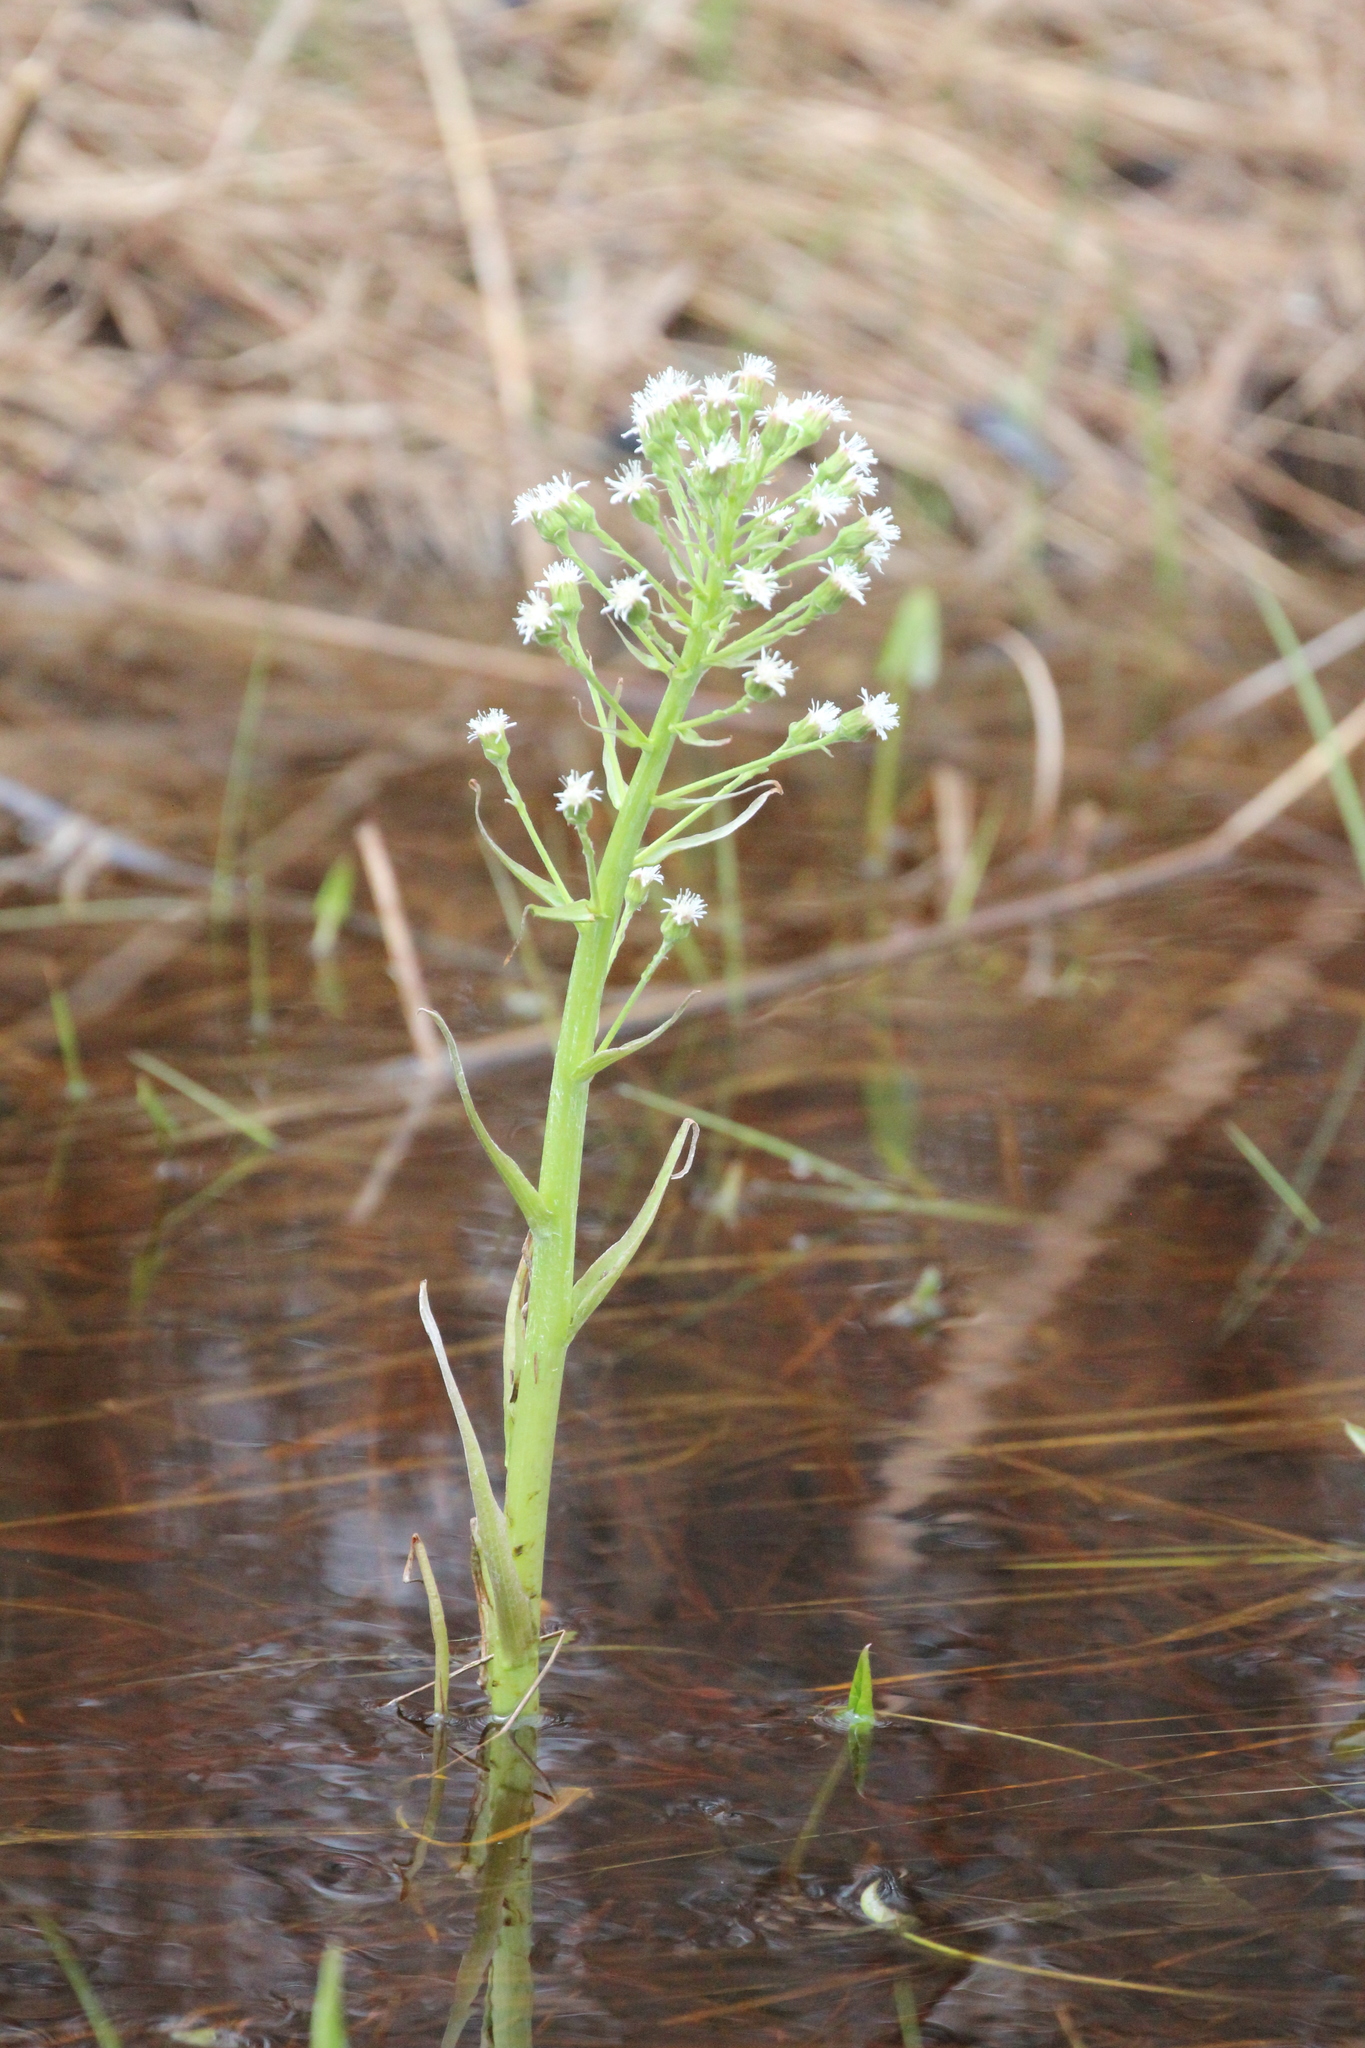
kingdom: Plantae
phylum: Tracheophyta
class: Magnoliopsida
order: Asterales
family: Asteraceae
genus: Petasites
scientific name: Petasites frigidus
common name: Arctic butterbur
